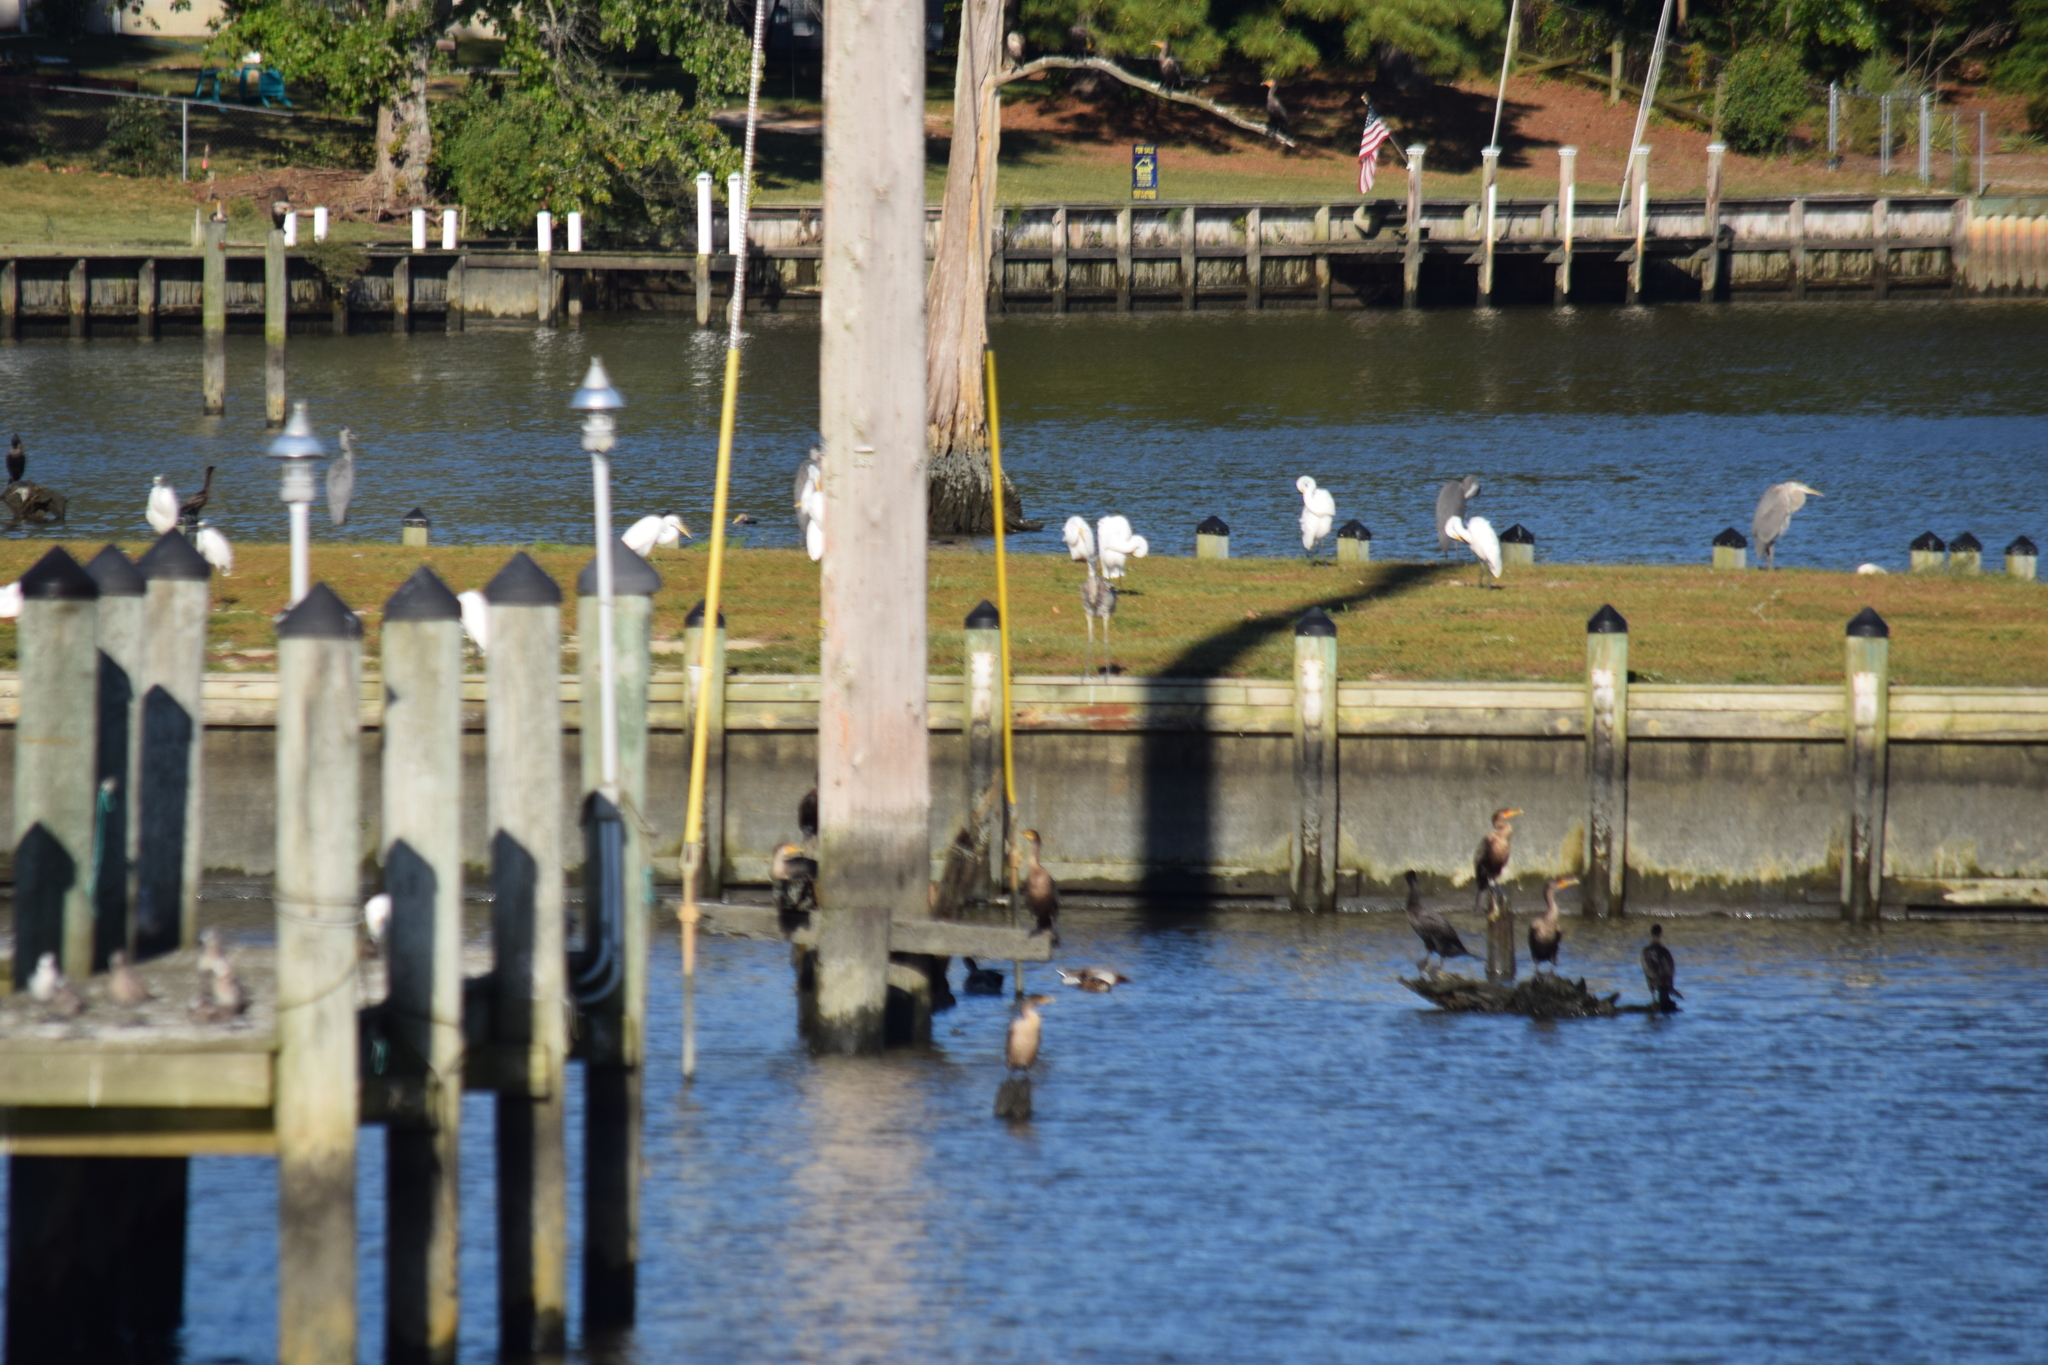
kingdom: Animalia
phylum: Chordata
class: Aves
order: Pelecaniformes
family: Ardeidae
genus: Ardea
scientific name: Ardea herodias
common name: Great blue heron
